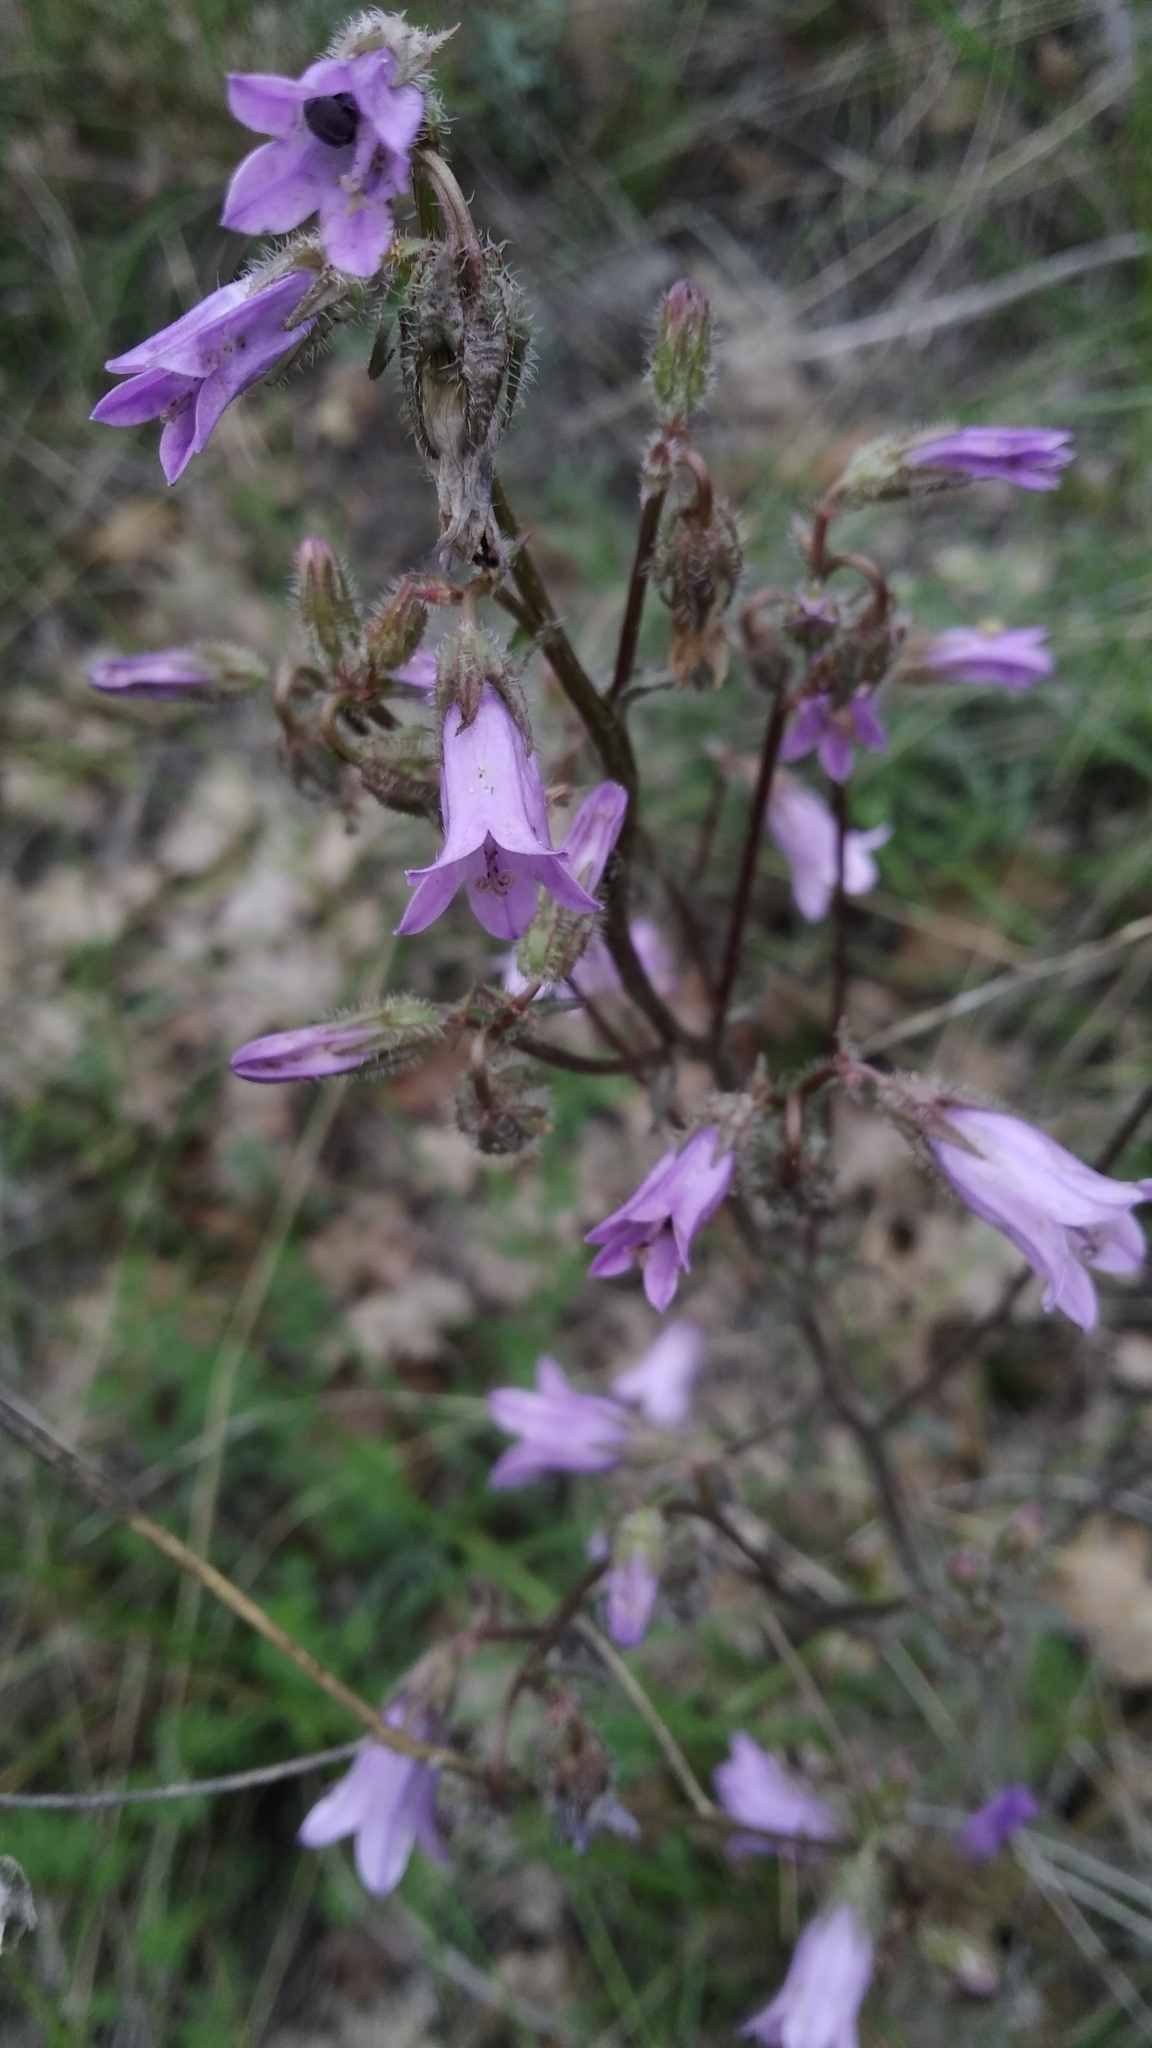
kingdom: Plantae
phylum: Tracheophyta
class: Magnoliopsida
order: Asterales
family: Campanulaceae
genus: Campanula
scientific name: Campanula sibirica
